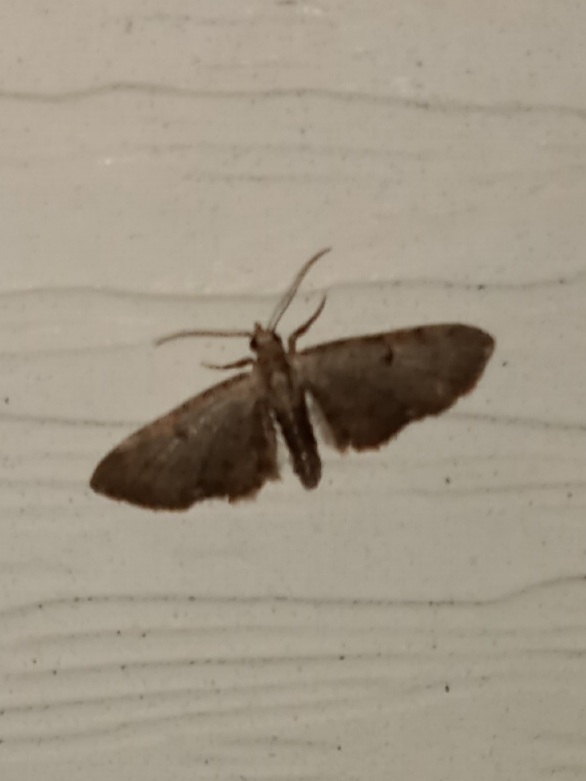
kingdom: Animalia
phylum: Arthropoda
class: Insecta
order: Lepidoptera
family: Geometridae
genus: Eupithecia
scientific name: Eupithecia miserulata
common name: Common eupithecia
